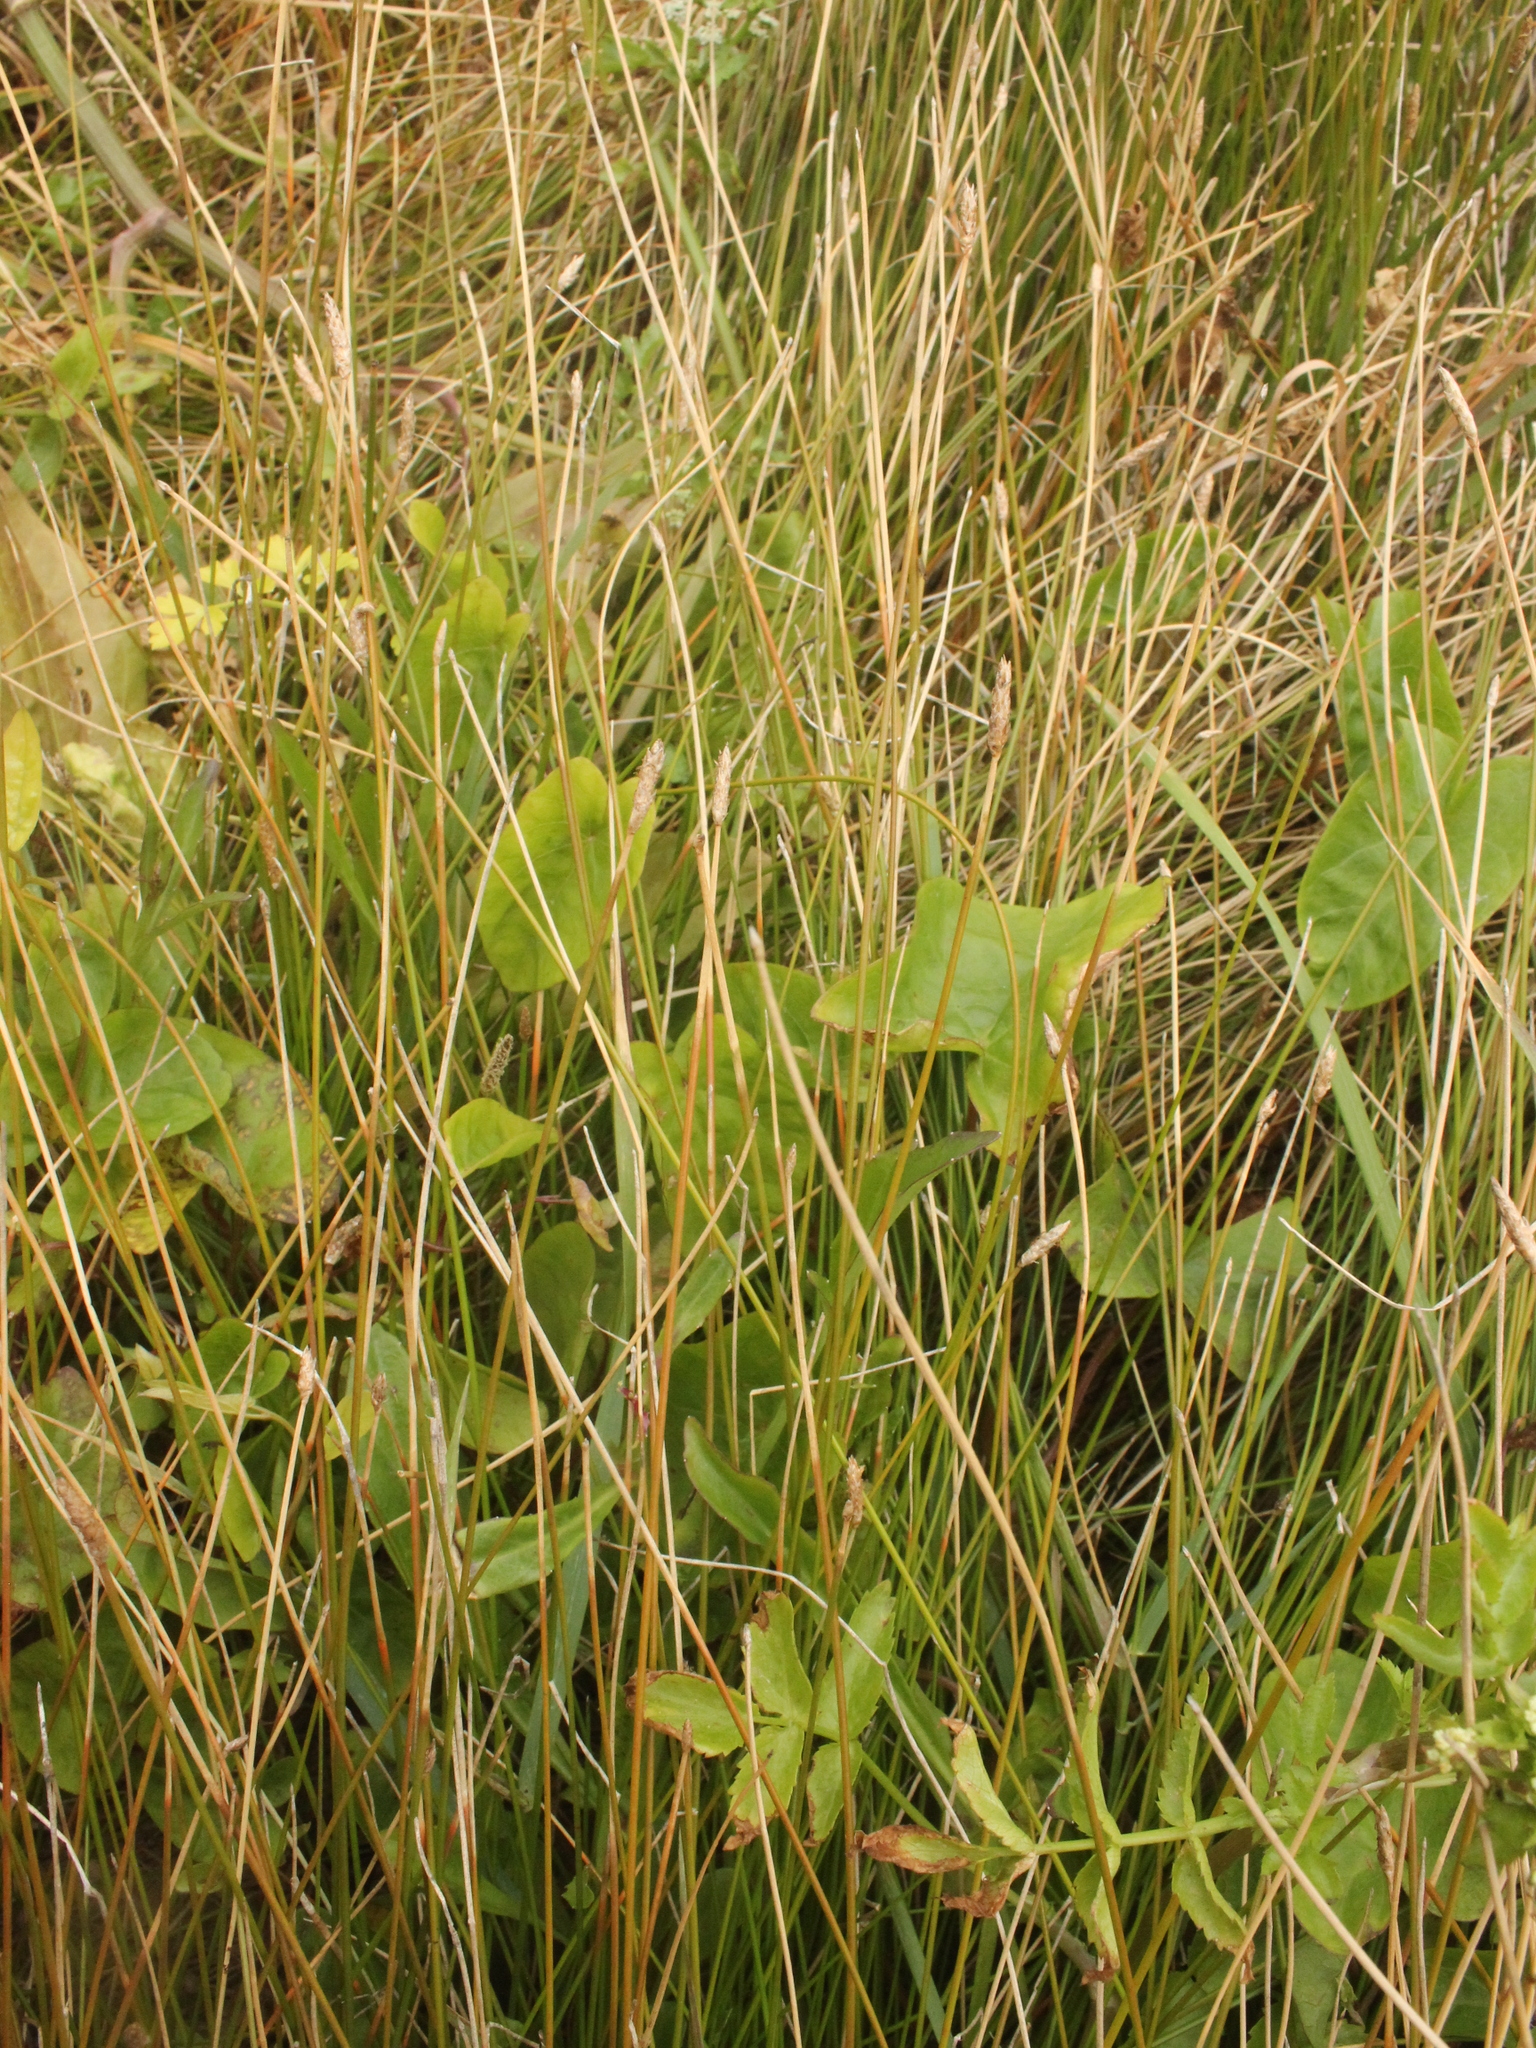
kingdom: Plantae
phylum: Tracheophyta
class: Liliopsida
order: Poales
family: Cyperaceae
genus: Eleocharis
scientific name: Eleocharis acuta
